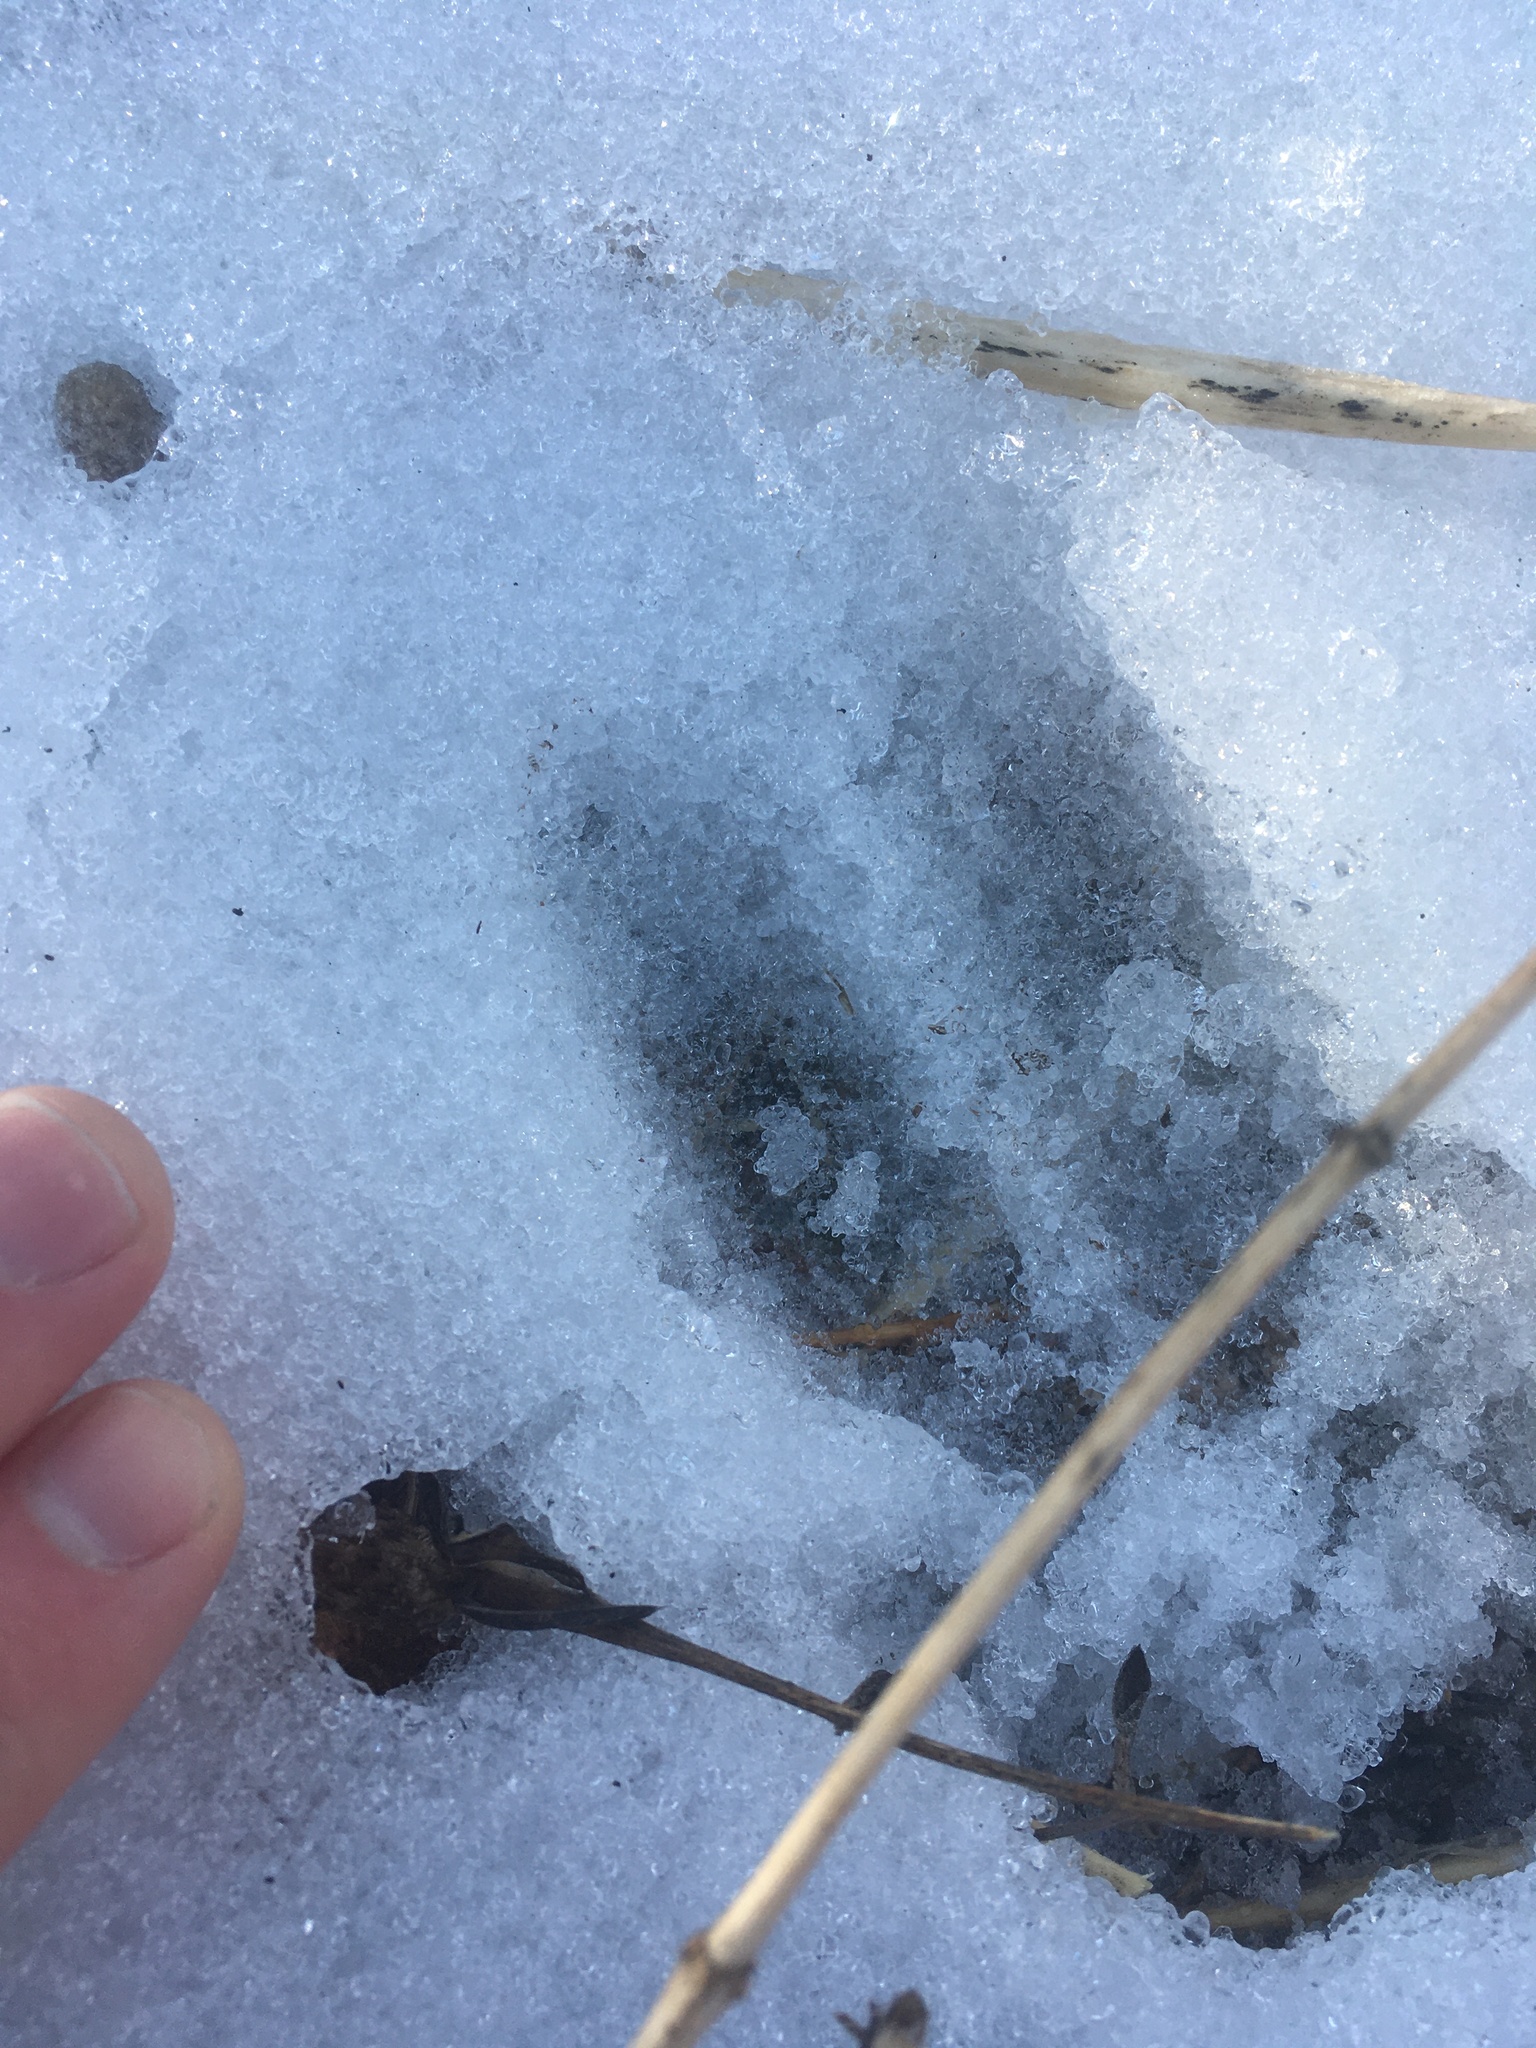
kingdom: Animalia
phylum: Chordata
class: Mammalia
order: Artiodactyla
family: Cervidae
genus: Odocoileus
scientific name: Odocoileus virginianus
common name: White-tailed deer
